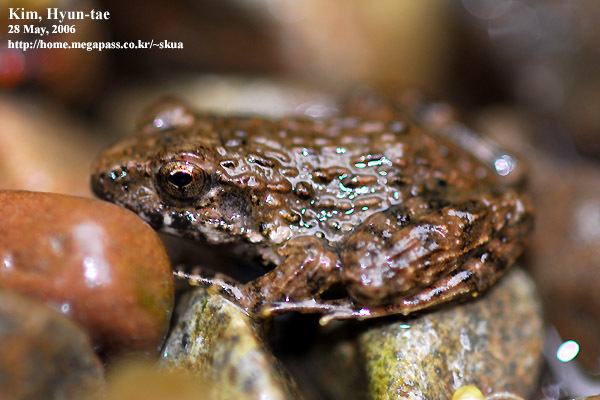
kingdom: Animalia
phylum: Chordata
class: Amphibia
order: Anura
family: Ranidae
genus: Glandirana
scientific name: Glandirana emeljanovi
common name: Northeast china rough-skinned frog
